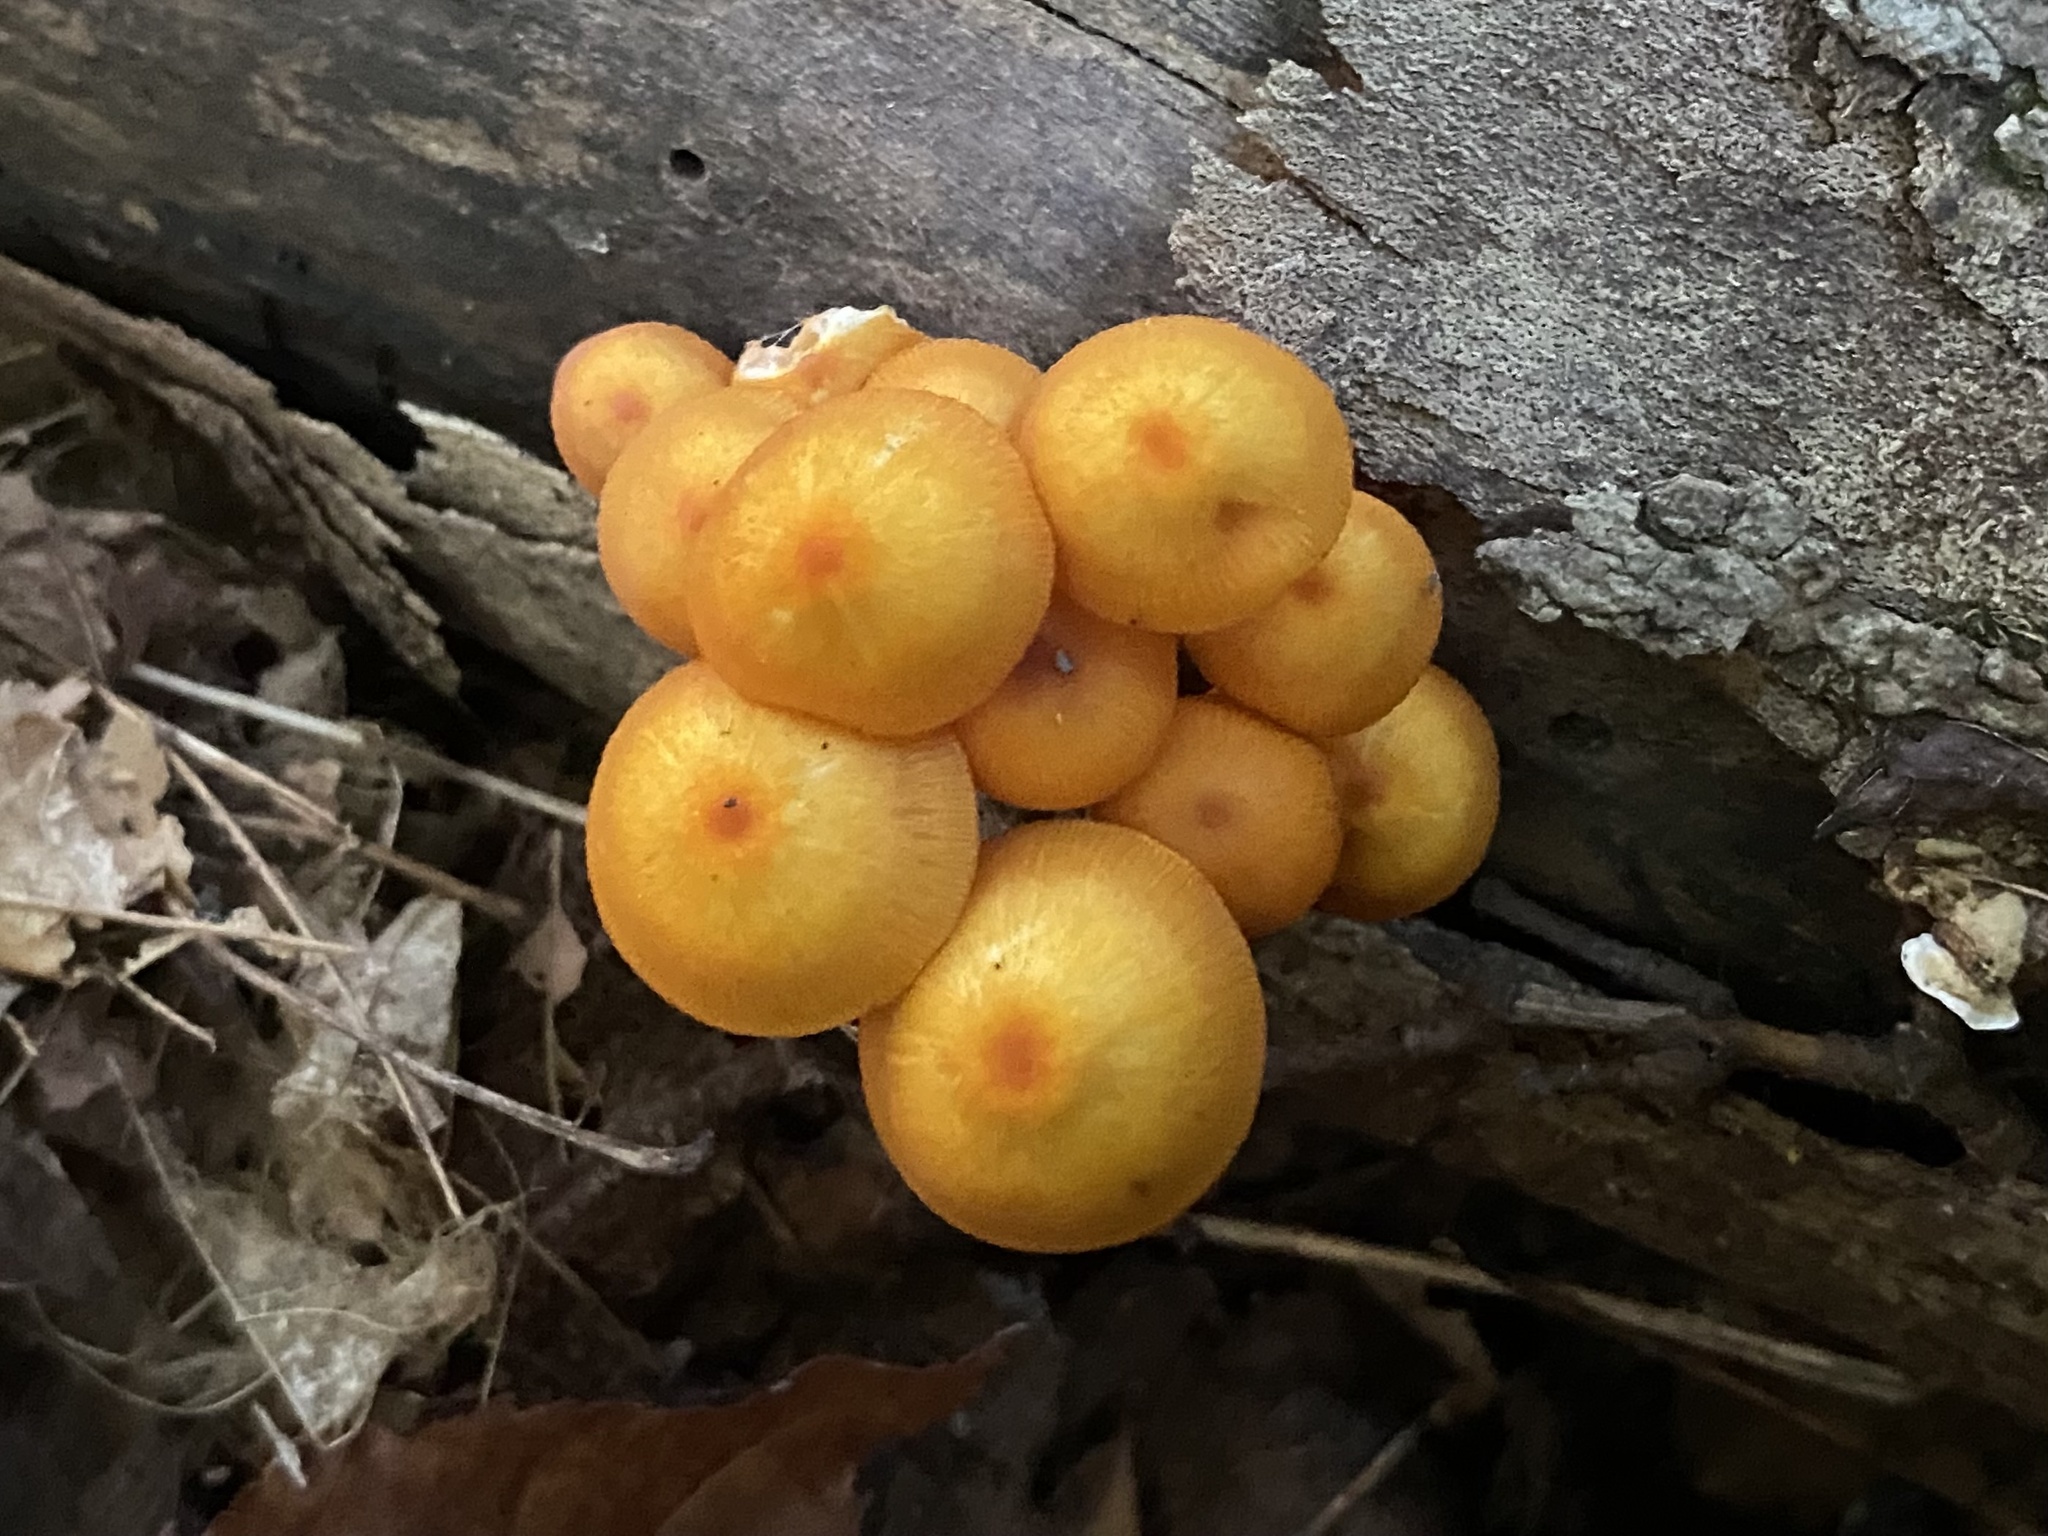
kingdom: Fungi
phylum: Basidiomycota
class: Agaricomycetes
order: Agaricales
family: Mycenaceae
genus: Mycena
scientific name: Mycena leaiana
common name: Orange mycena
